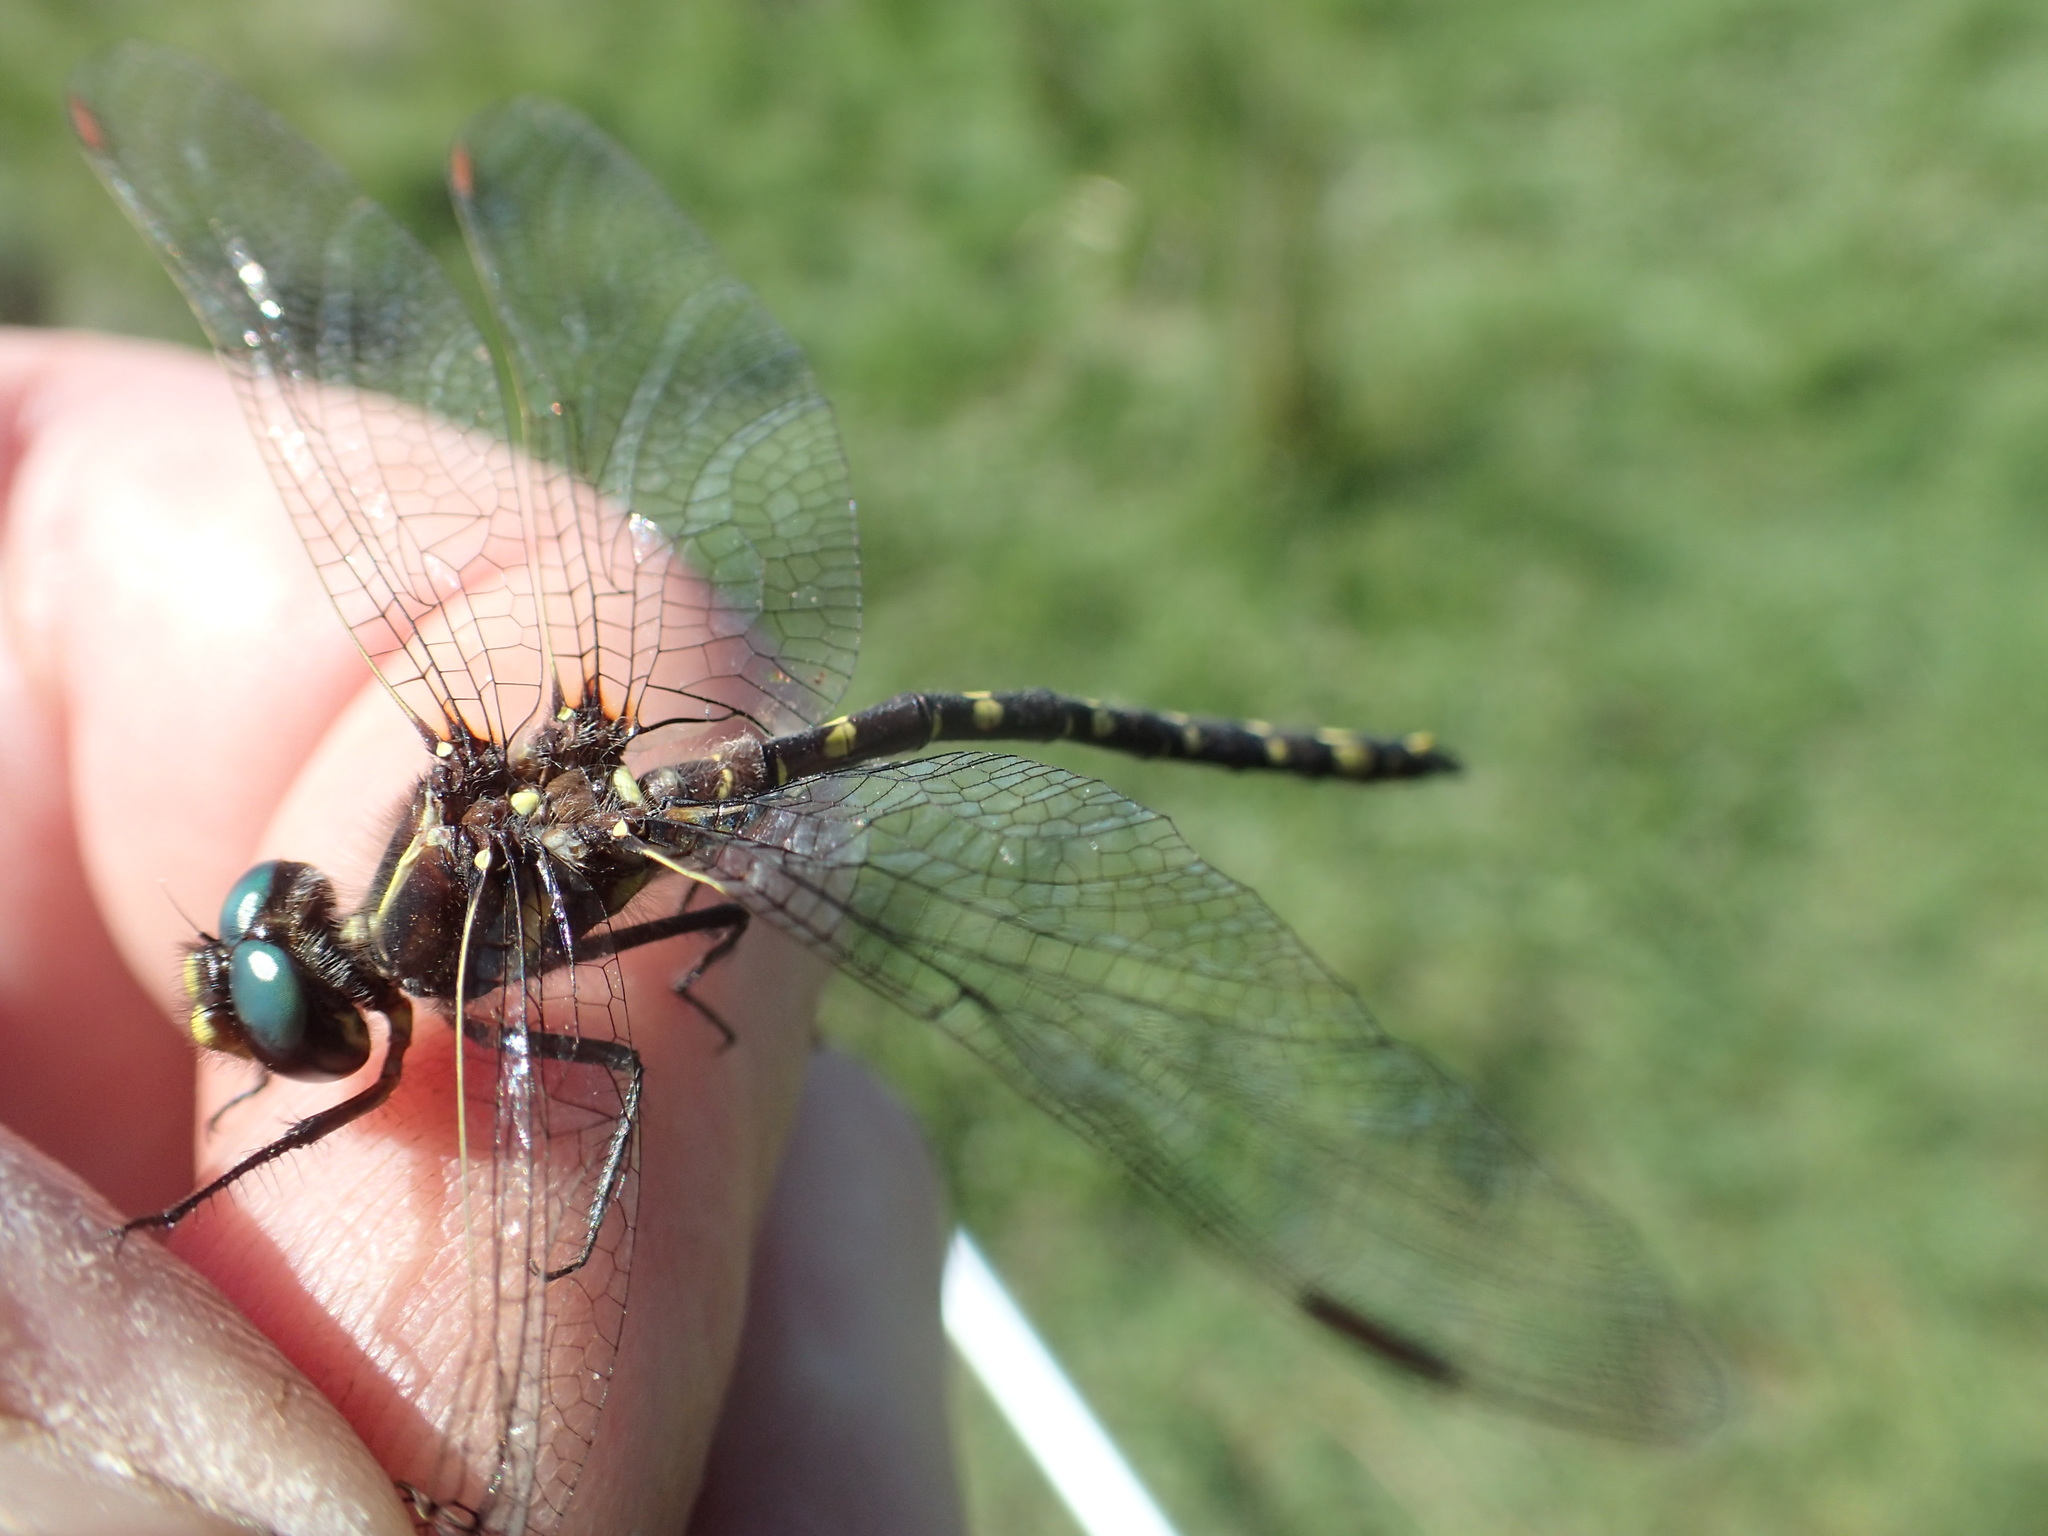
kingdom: Animalia
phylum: Arthropoda
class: Insecta
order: Odonata
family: Synthemistidae
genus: Synthemis
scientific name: Synthemis tasmanica
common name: Tasmanian swamp tigertail
